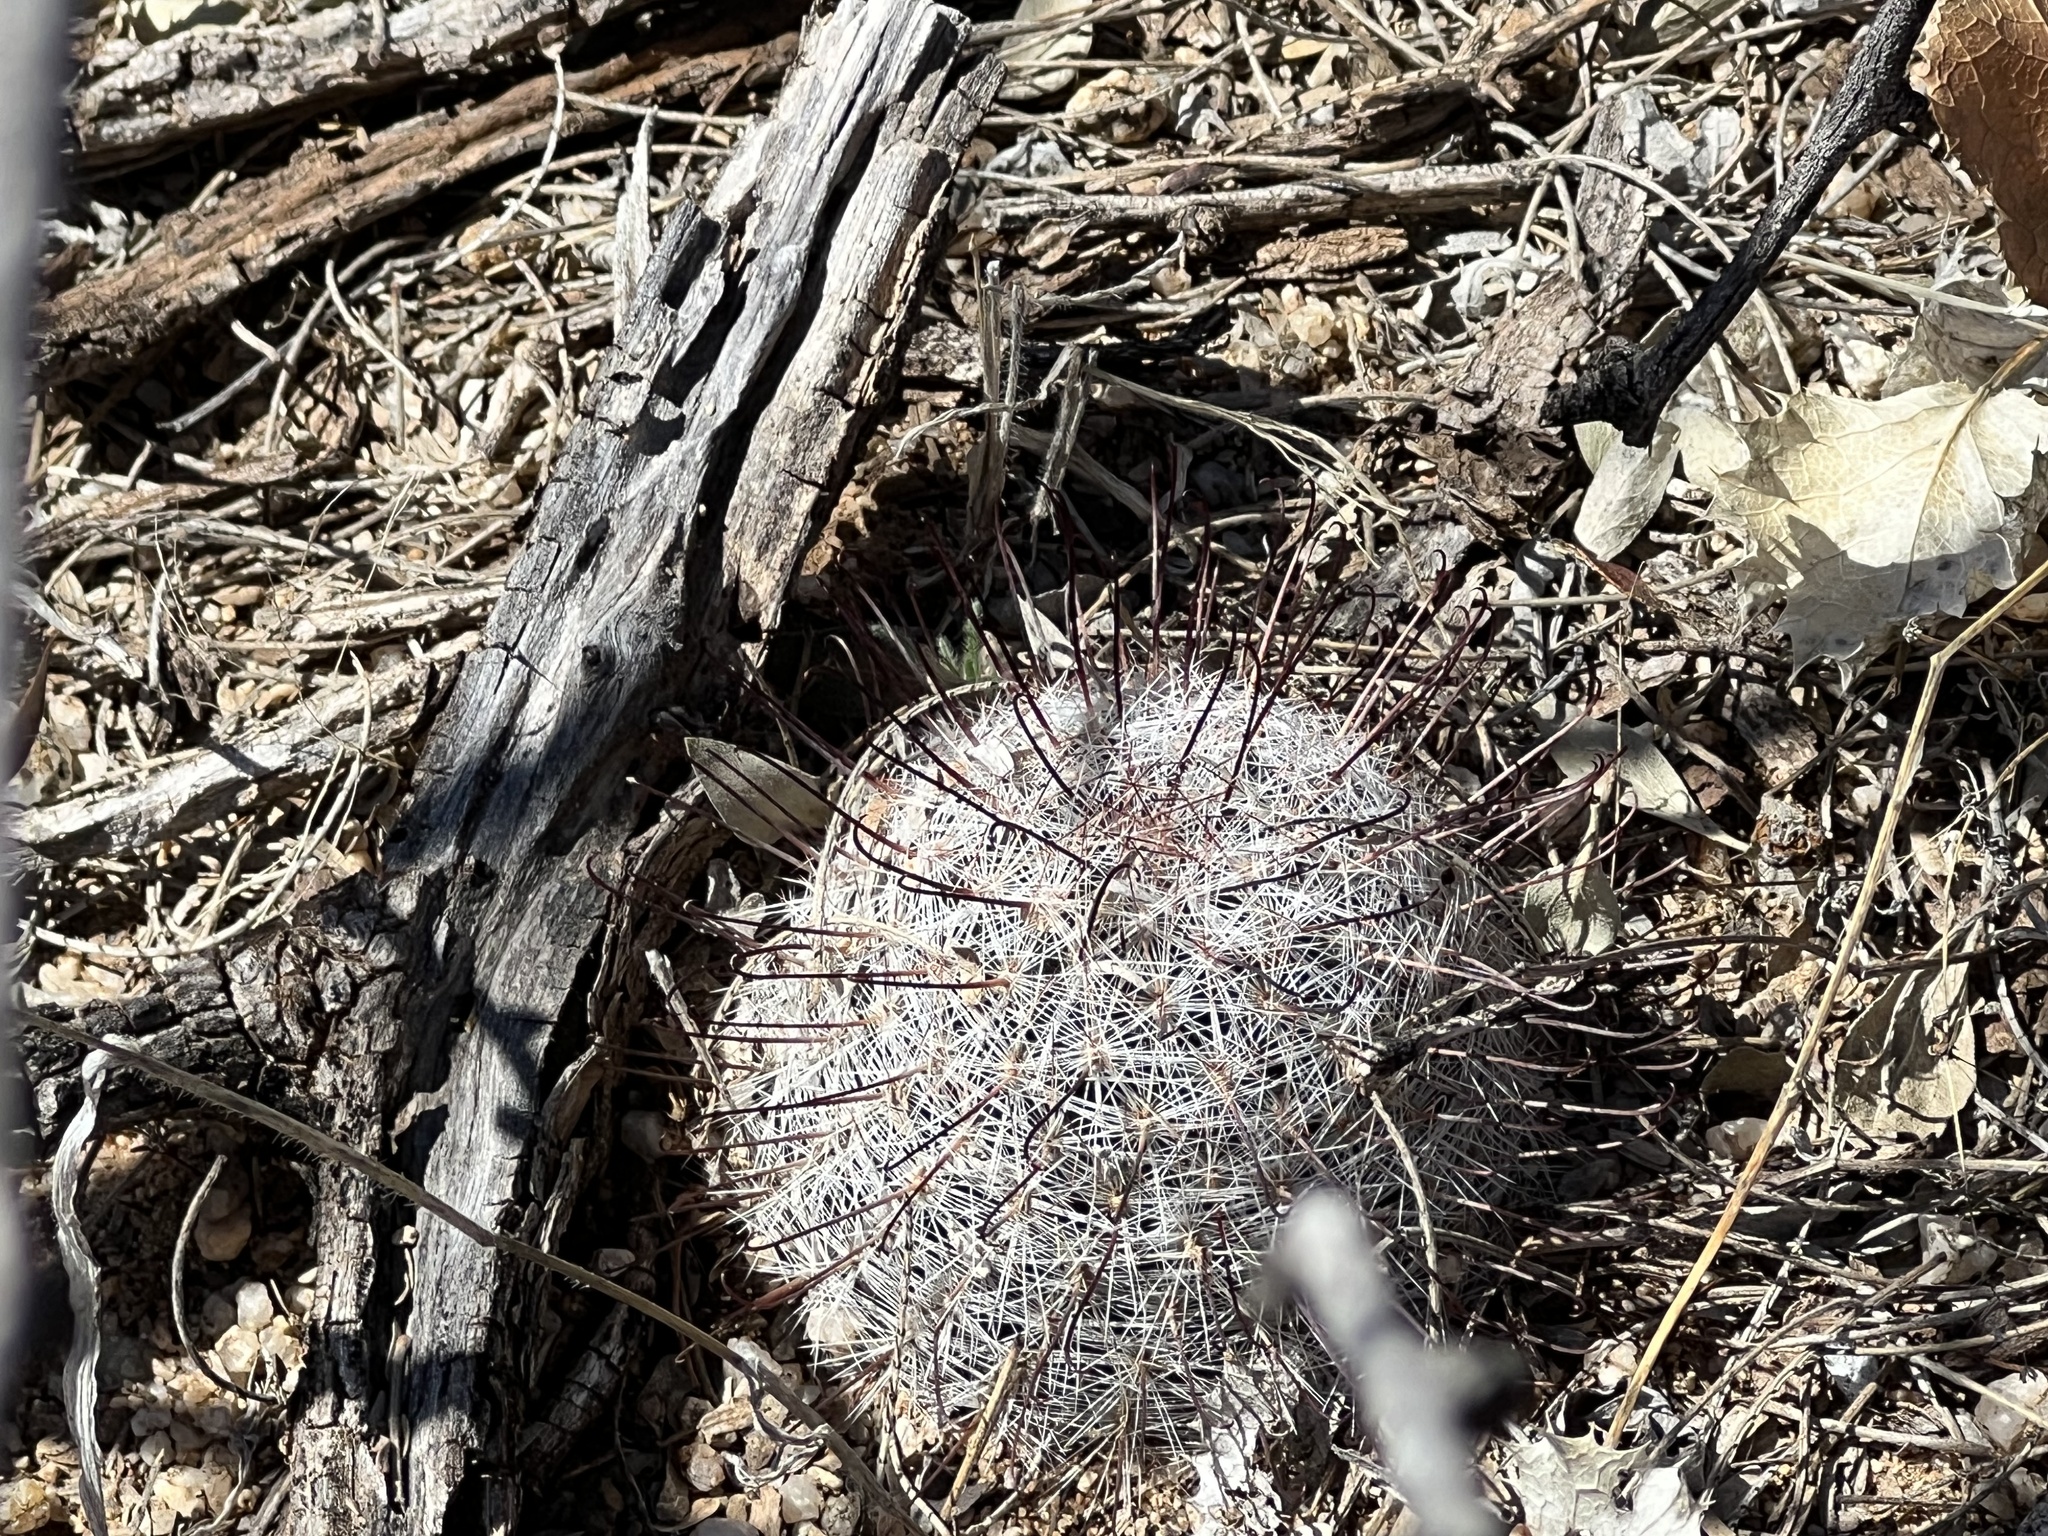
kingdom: Plantae
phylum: Tracheophyta
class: Magnoliopsida
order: Caryophyllales
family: Cactaceae
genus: Cochemiea
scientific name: Cochemiea grahamii
